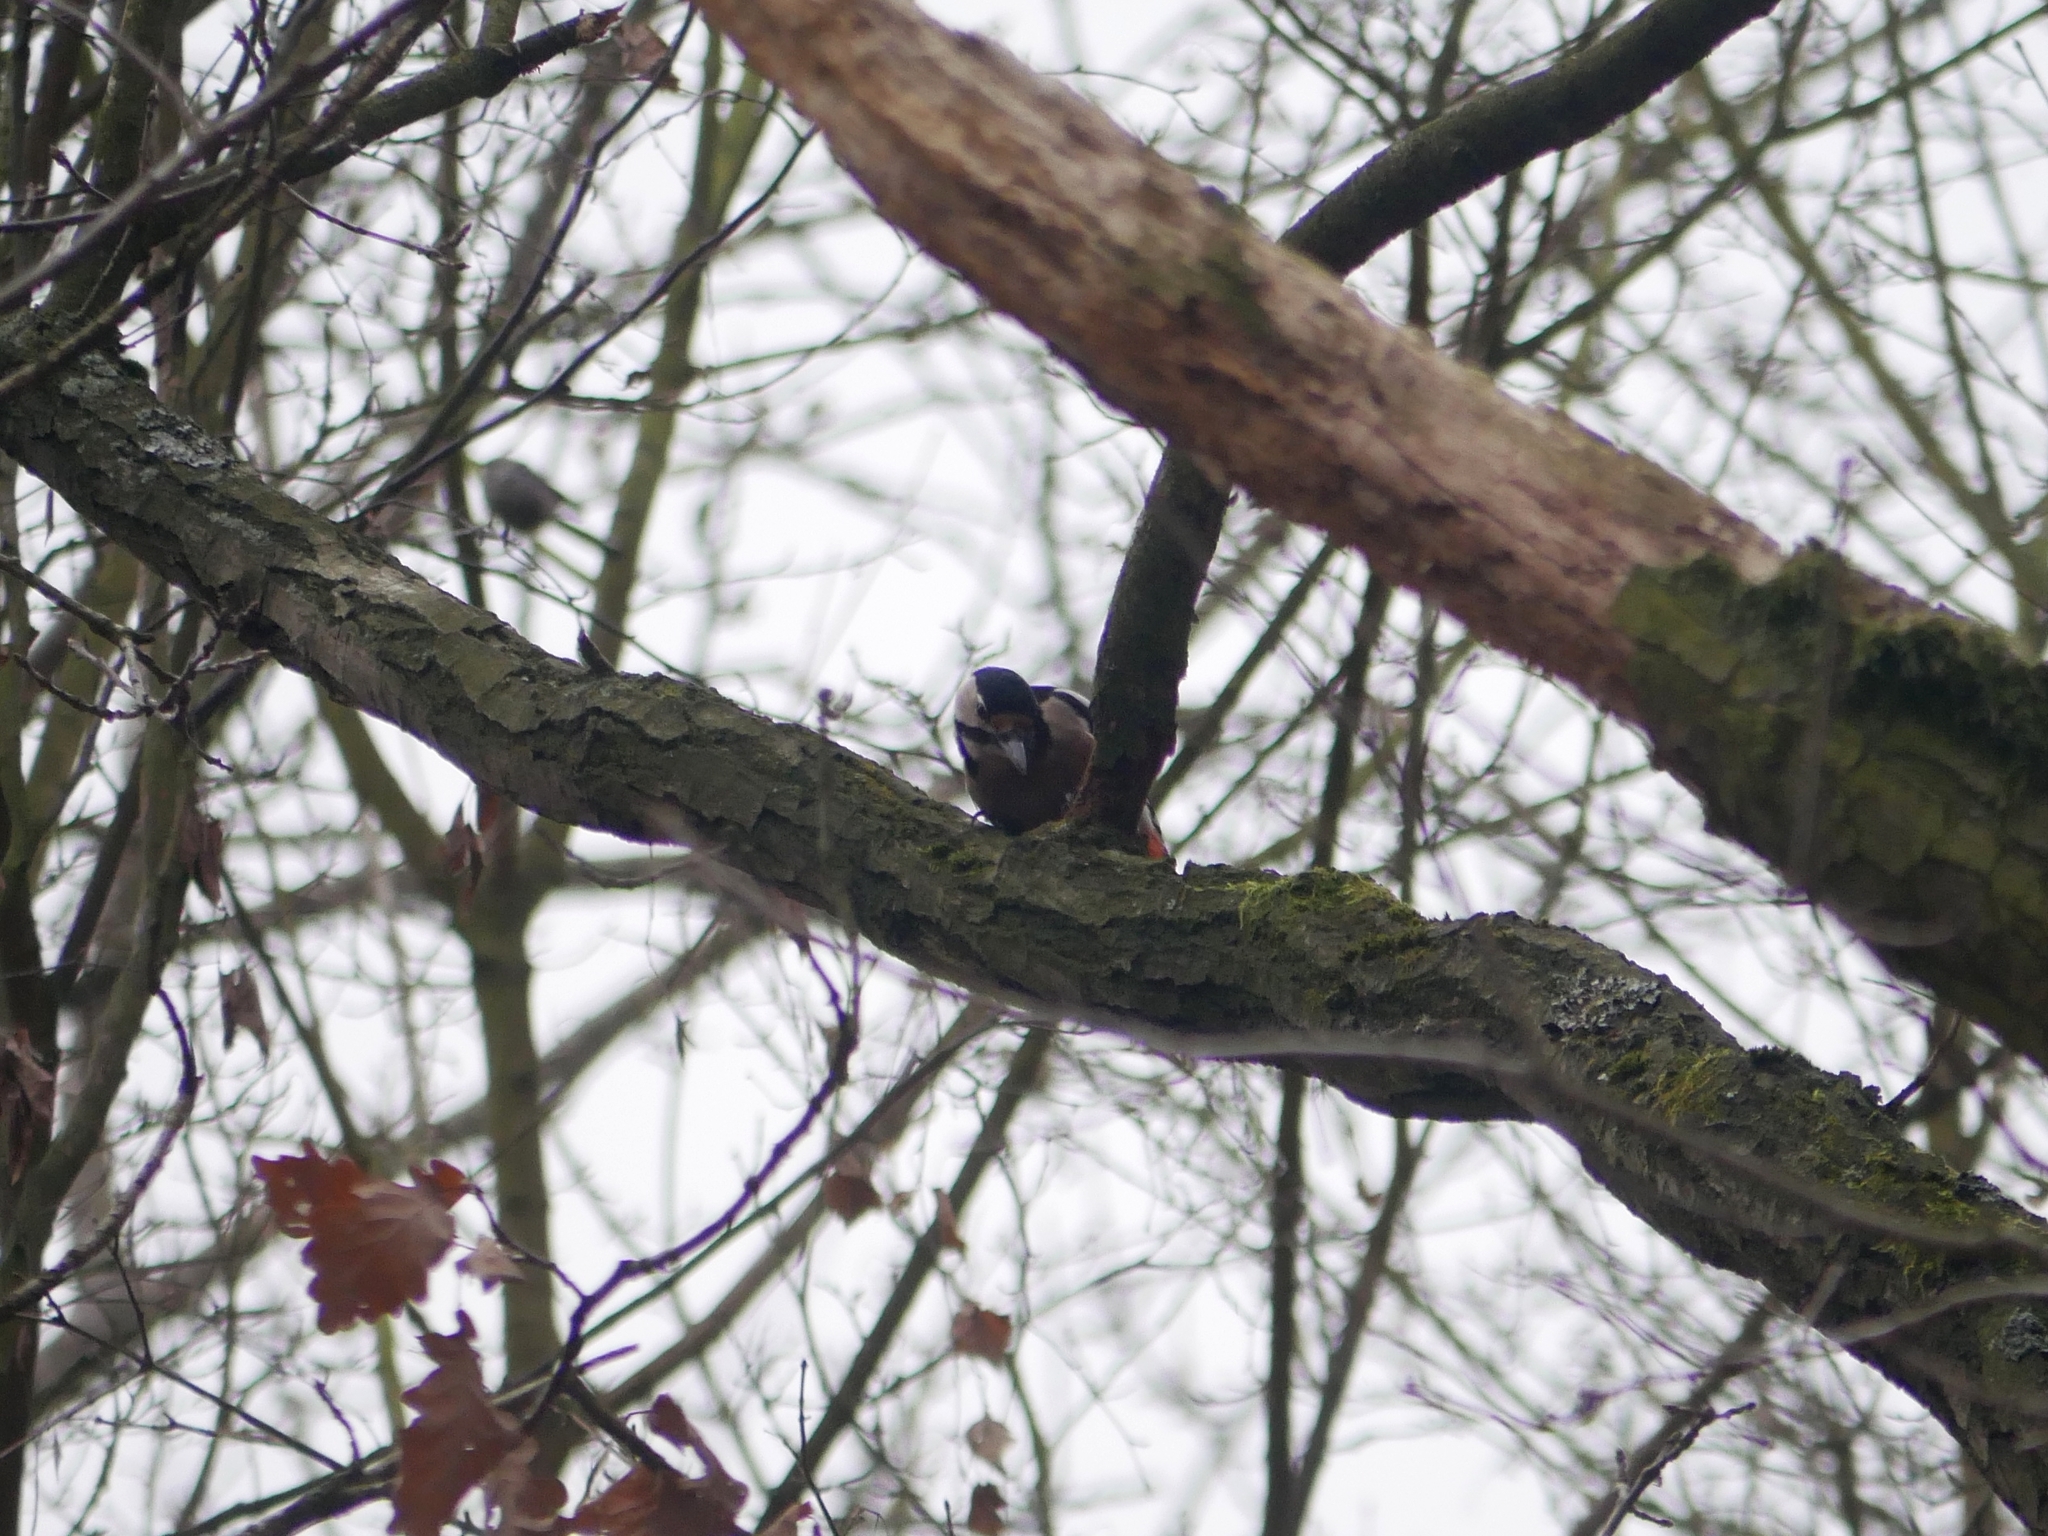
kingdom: Animalia
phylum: Chordata
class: Aves
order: Piciformes
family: Picidae
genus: Dendrocopos
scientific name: Dendrocopos major
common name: Great spotted woodpecker
